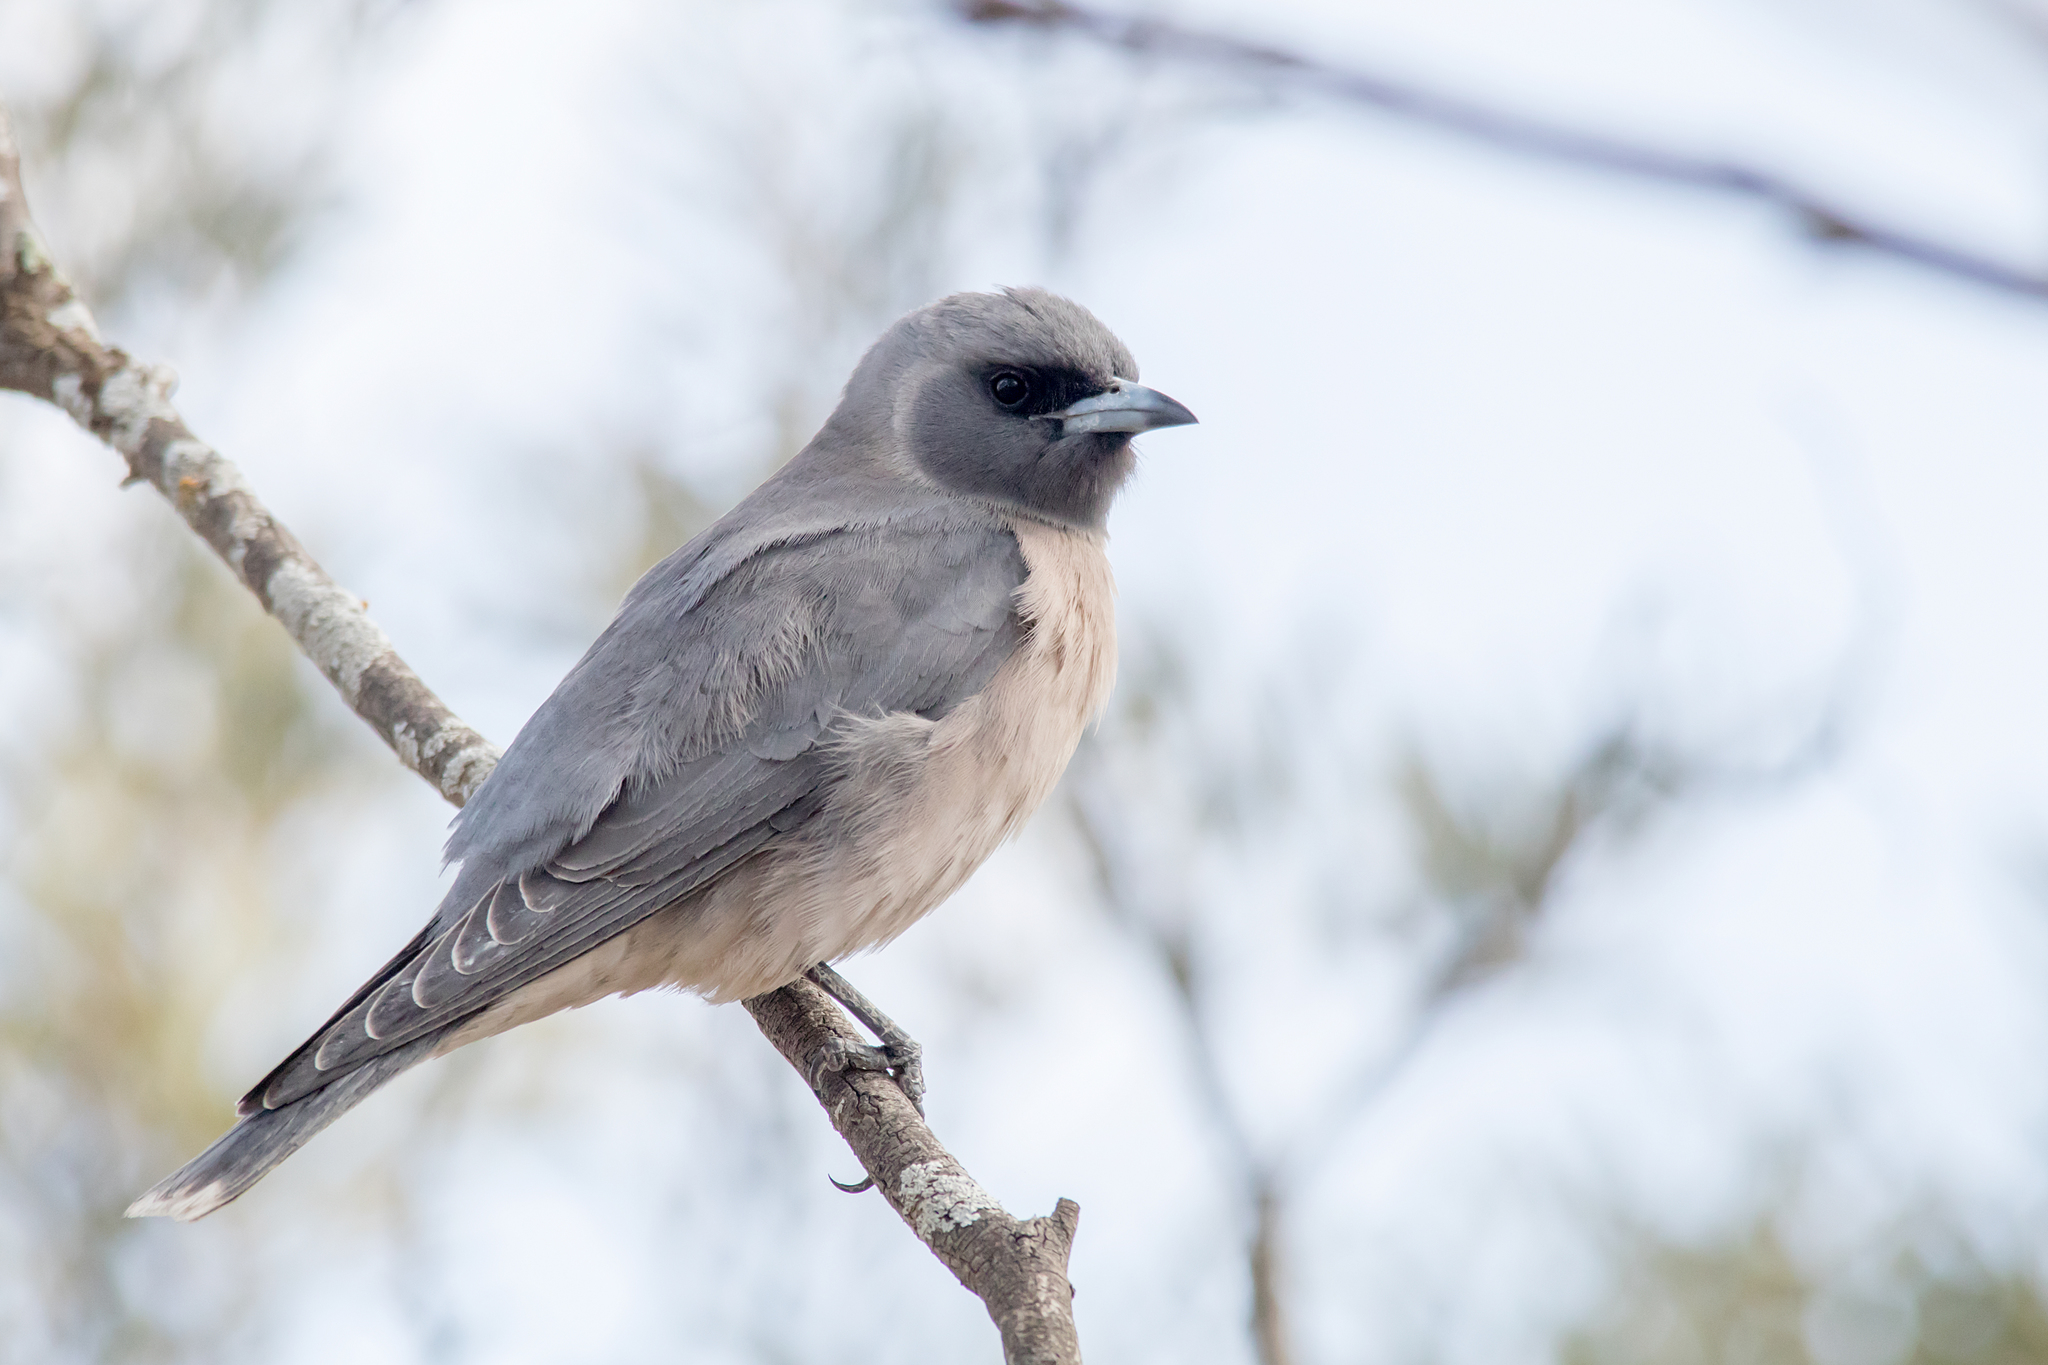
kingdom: Animalia
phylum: Chordata
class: Aves
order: Passeriformes
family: Artamidae
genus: Artamus
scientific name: Artamus personatus
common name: Masked woodswallow
